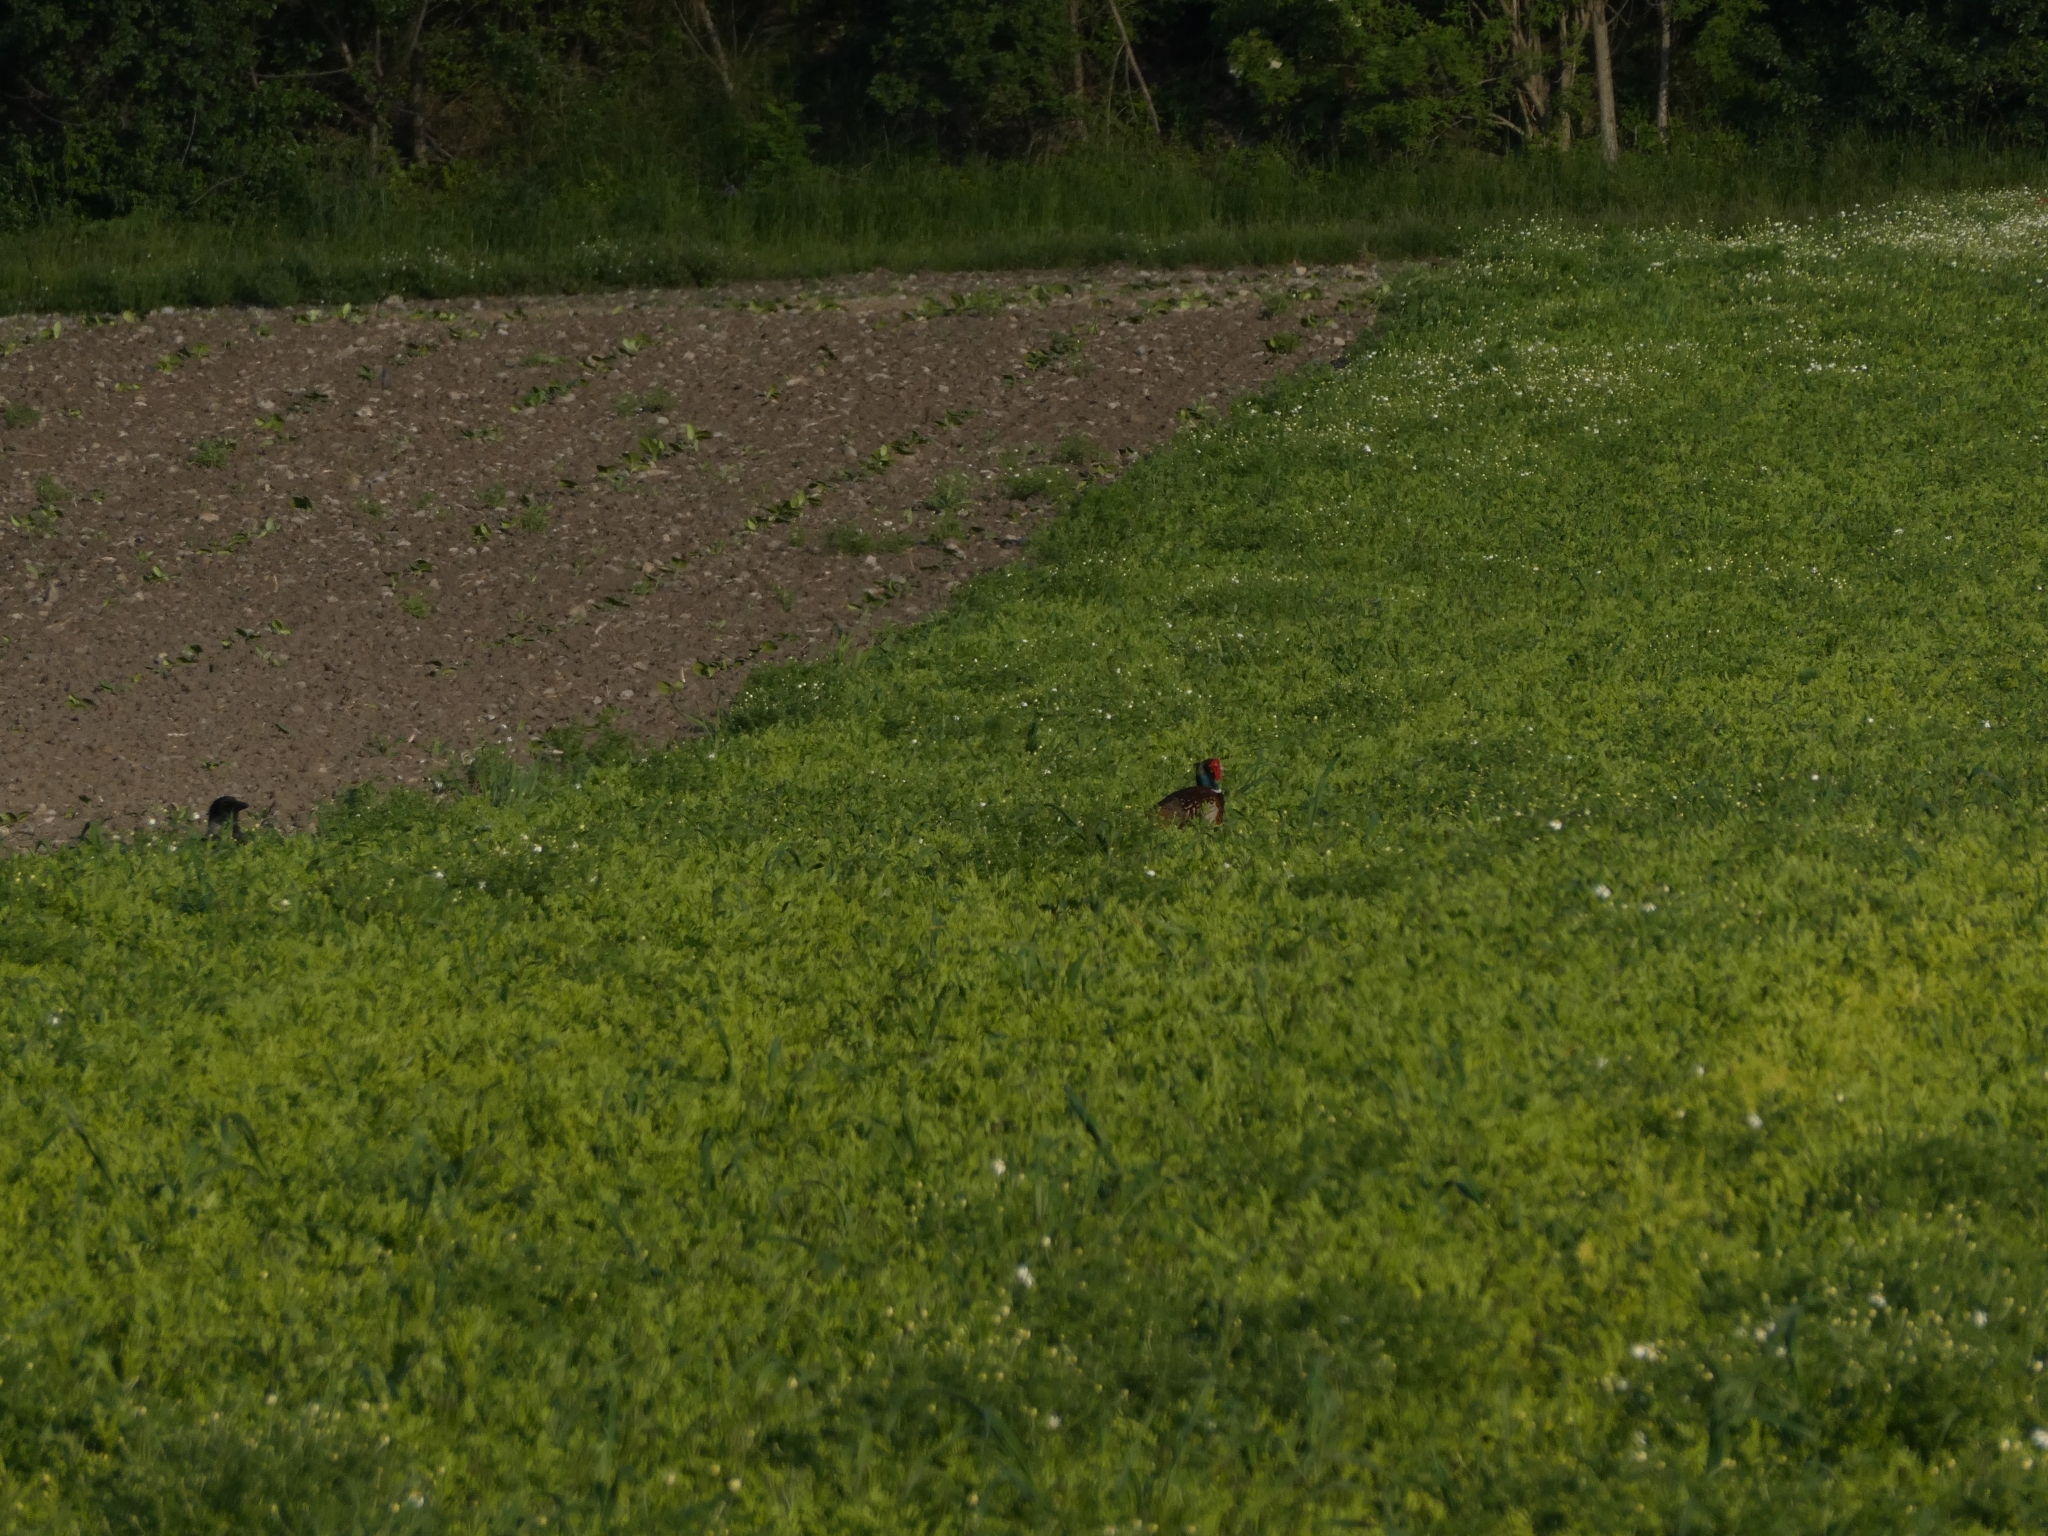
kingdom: Animalia
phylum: Chordata
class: Aves
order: Galliformes
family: Phasianidae
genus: Phasianus
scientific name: Phasianus colchicus
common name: Common pheasant
